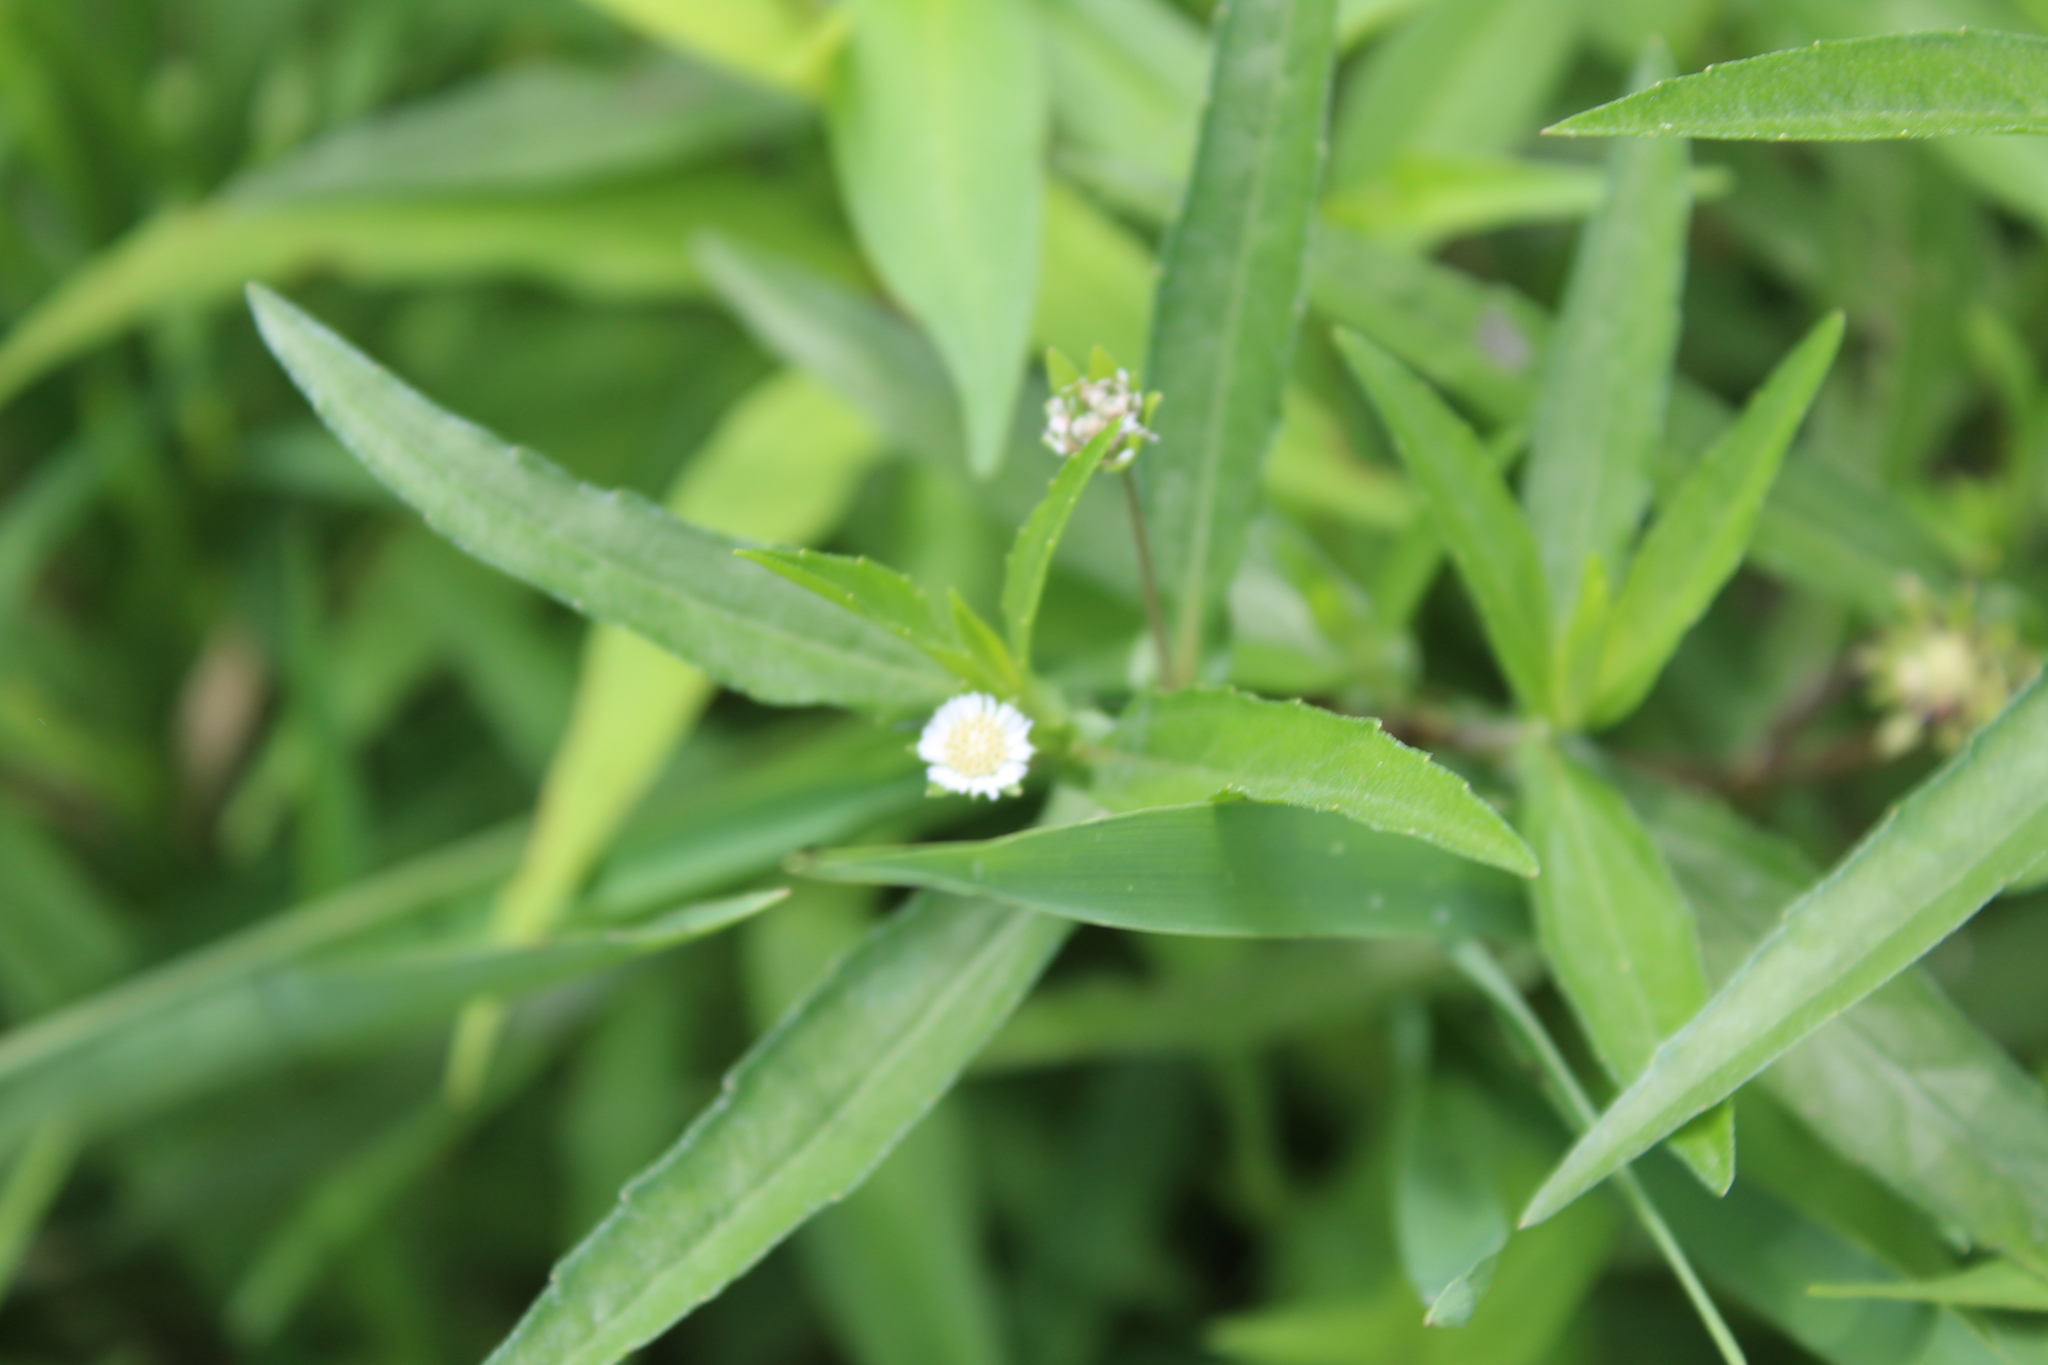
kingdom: Plantae
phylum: Tracheophyta
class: Magnoliopsida
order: Asterales
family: Asteraceae
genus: Eclipta
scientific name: Eclipta prostrata
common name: False daisy
